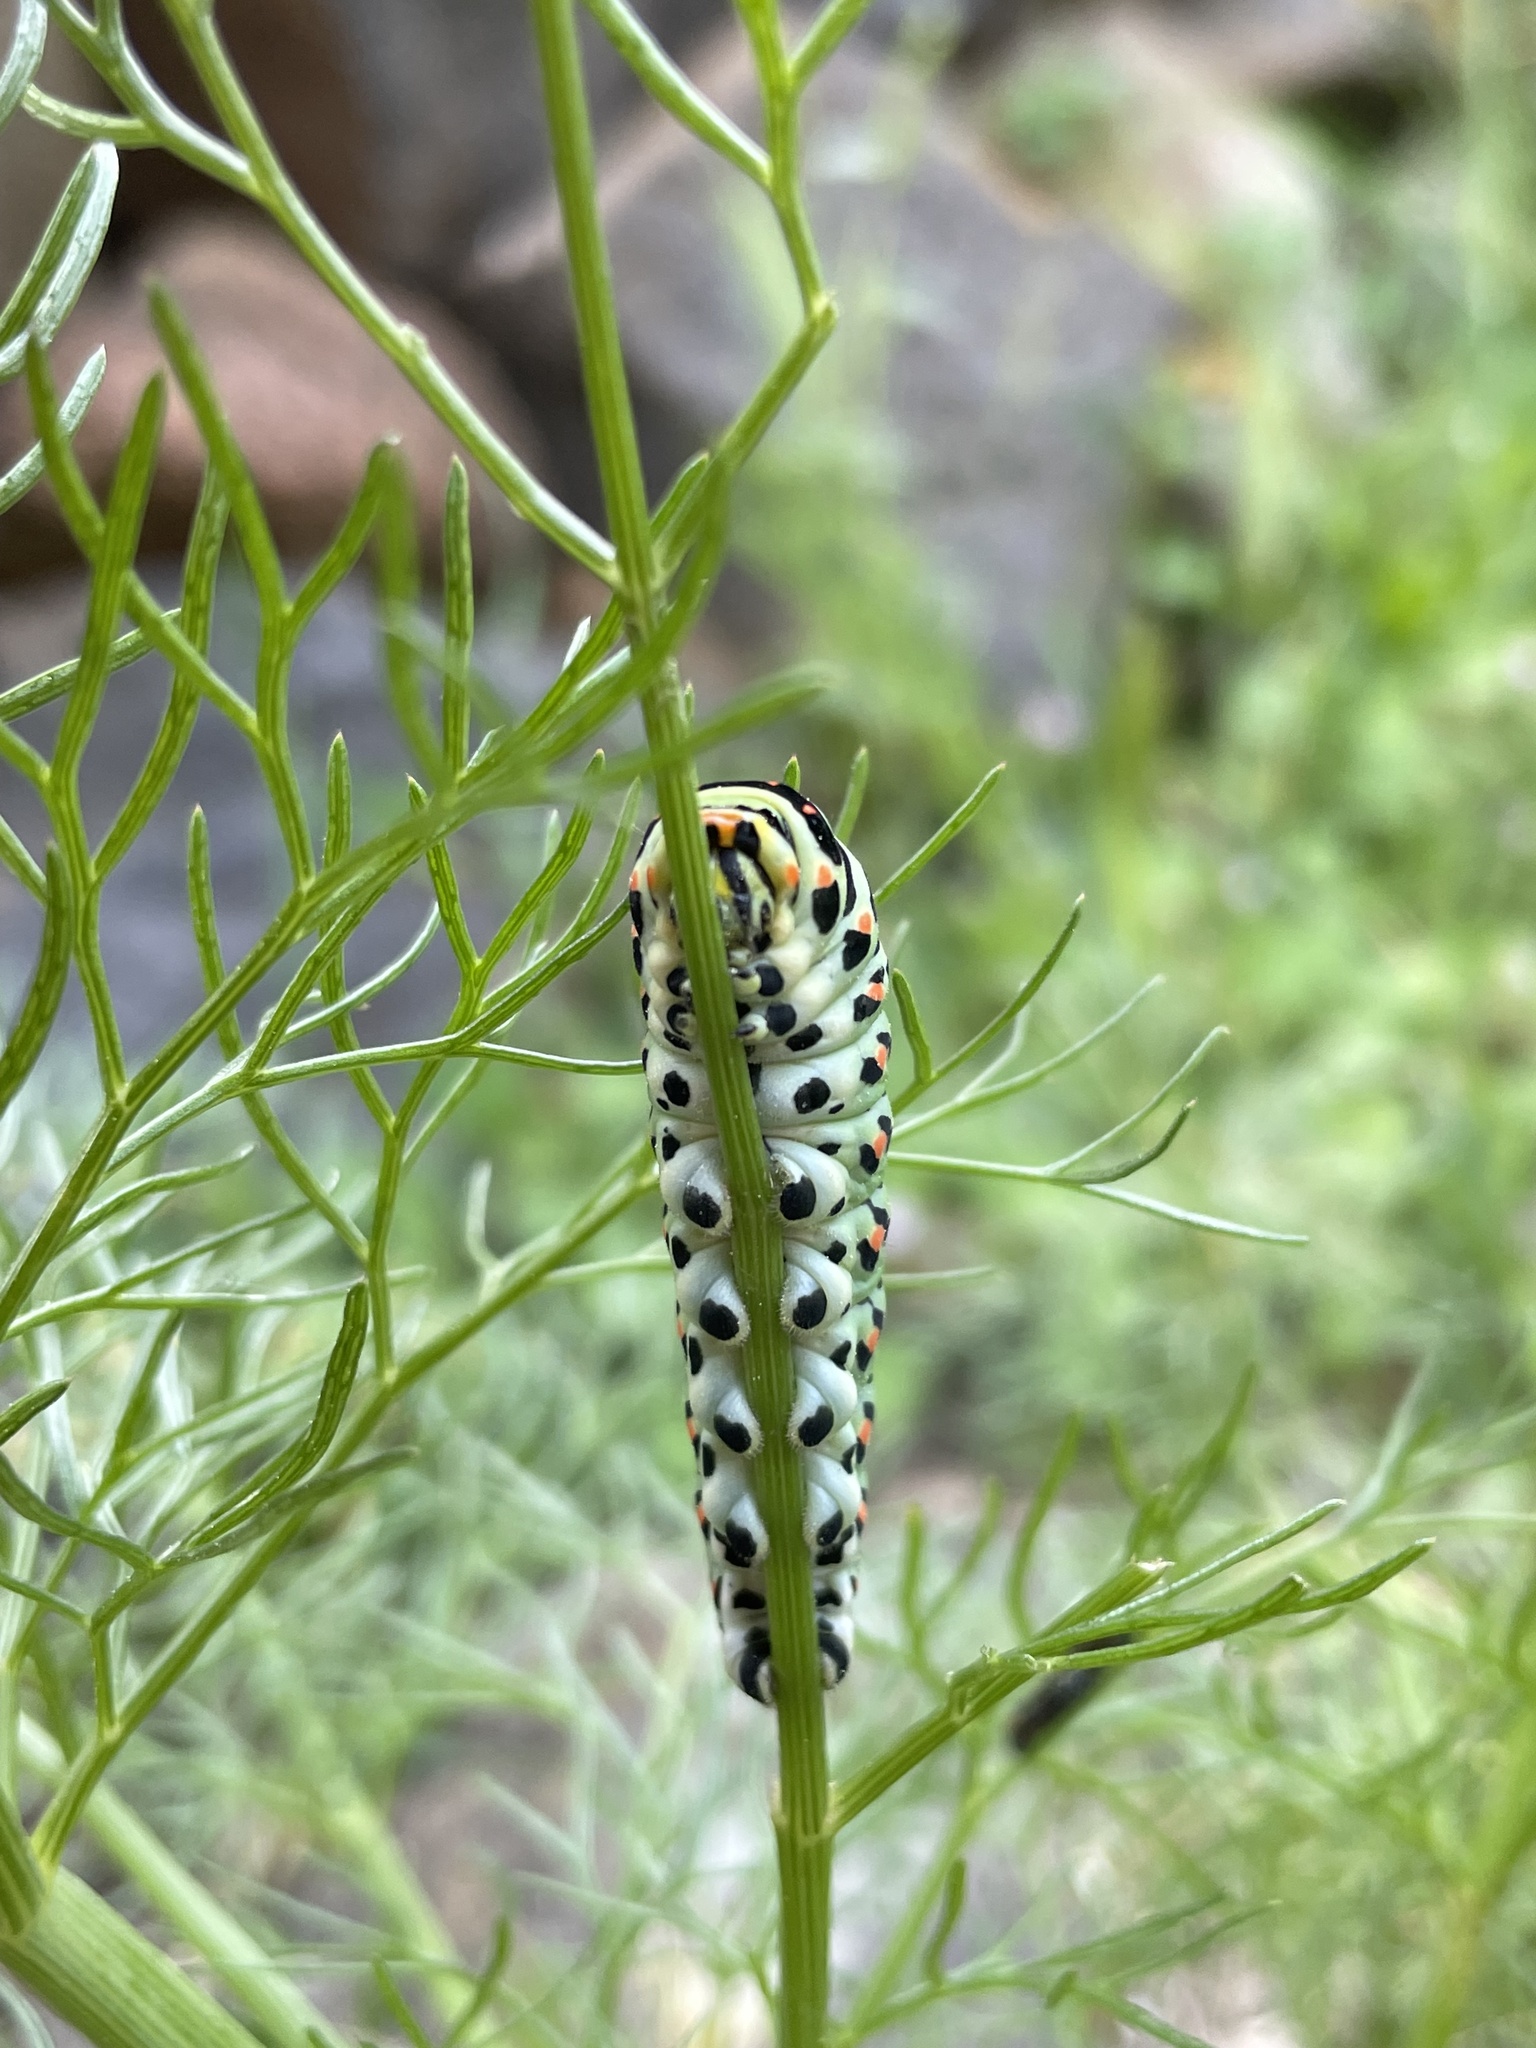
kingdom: Animalia
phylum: Arthropoda
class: Insecta
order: Lepidoptera
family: Papilionidae
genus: Papilio
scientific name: Papilio machaon
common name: Swallowtail
